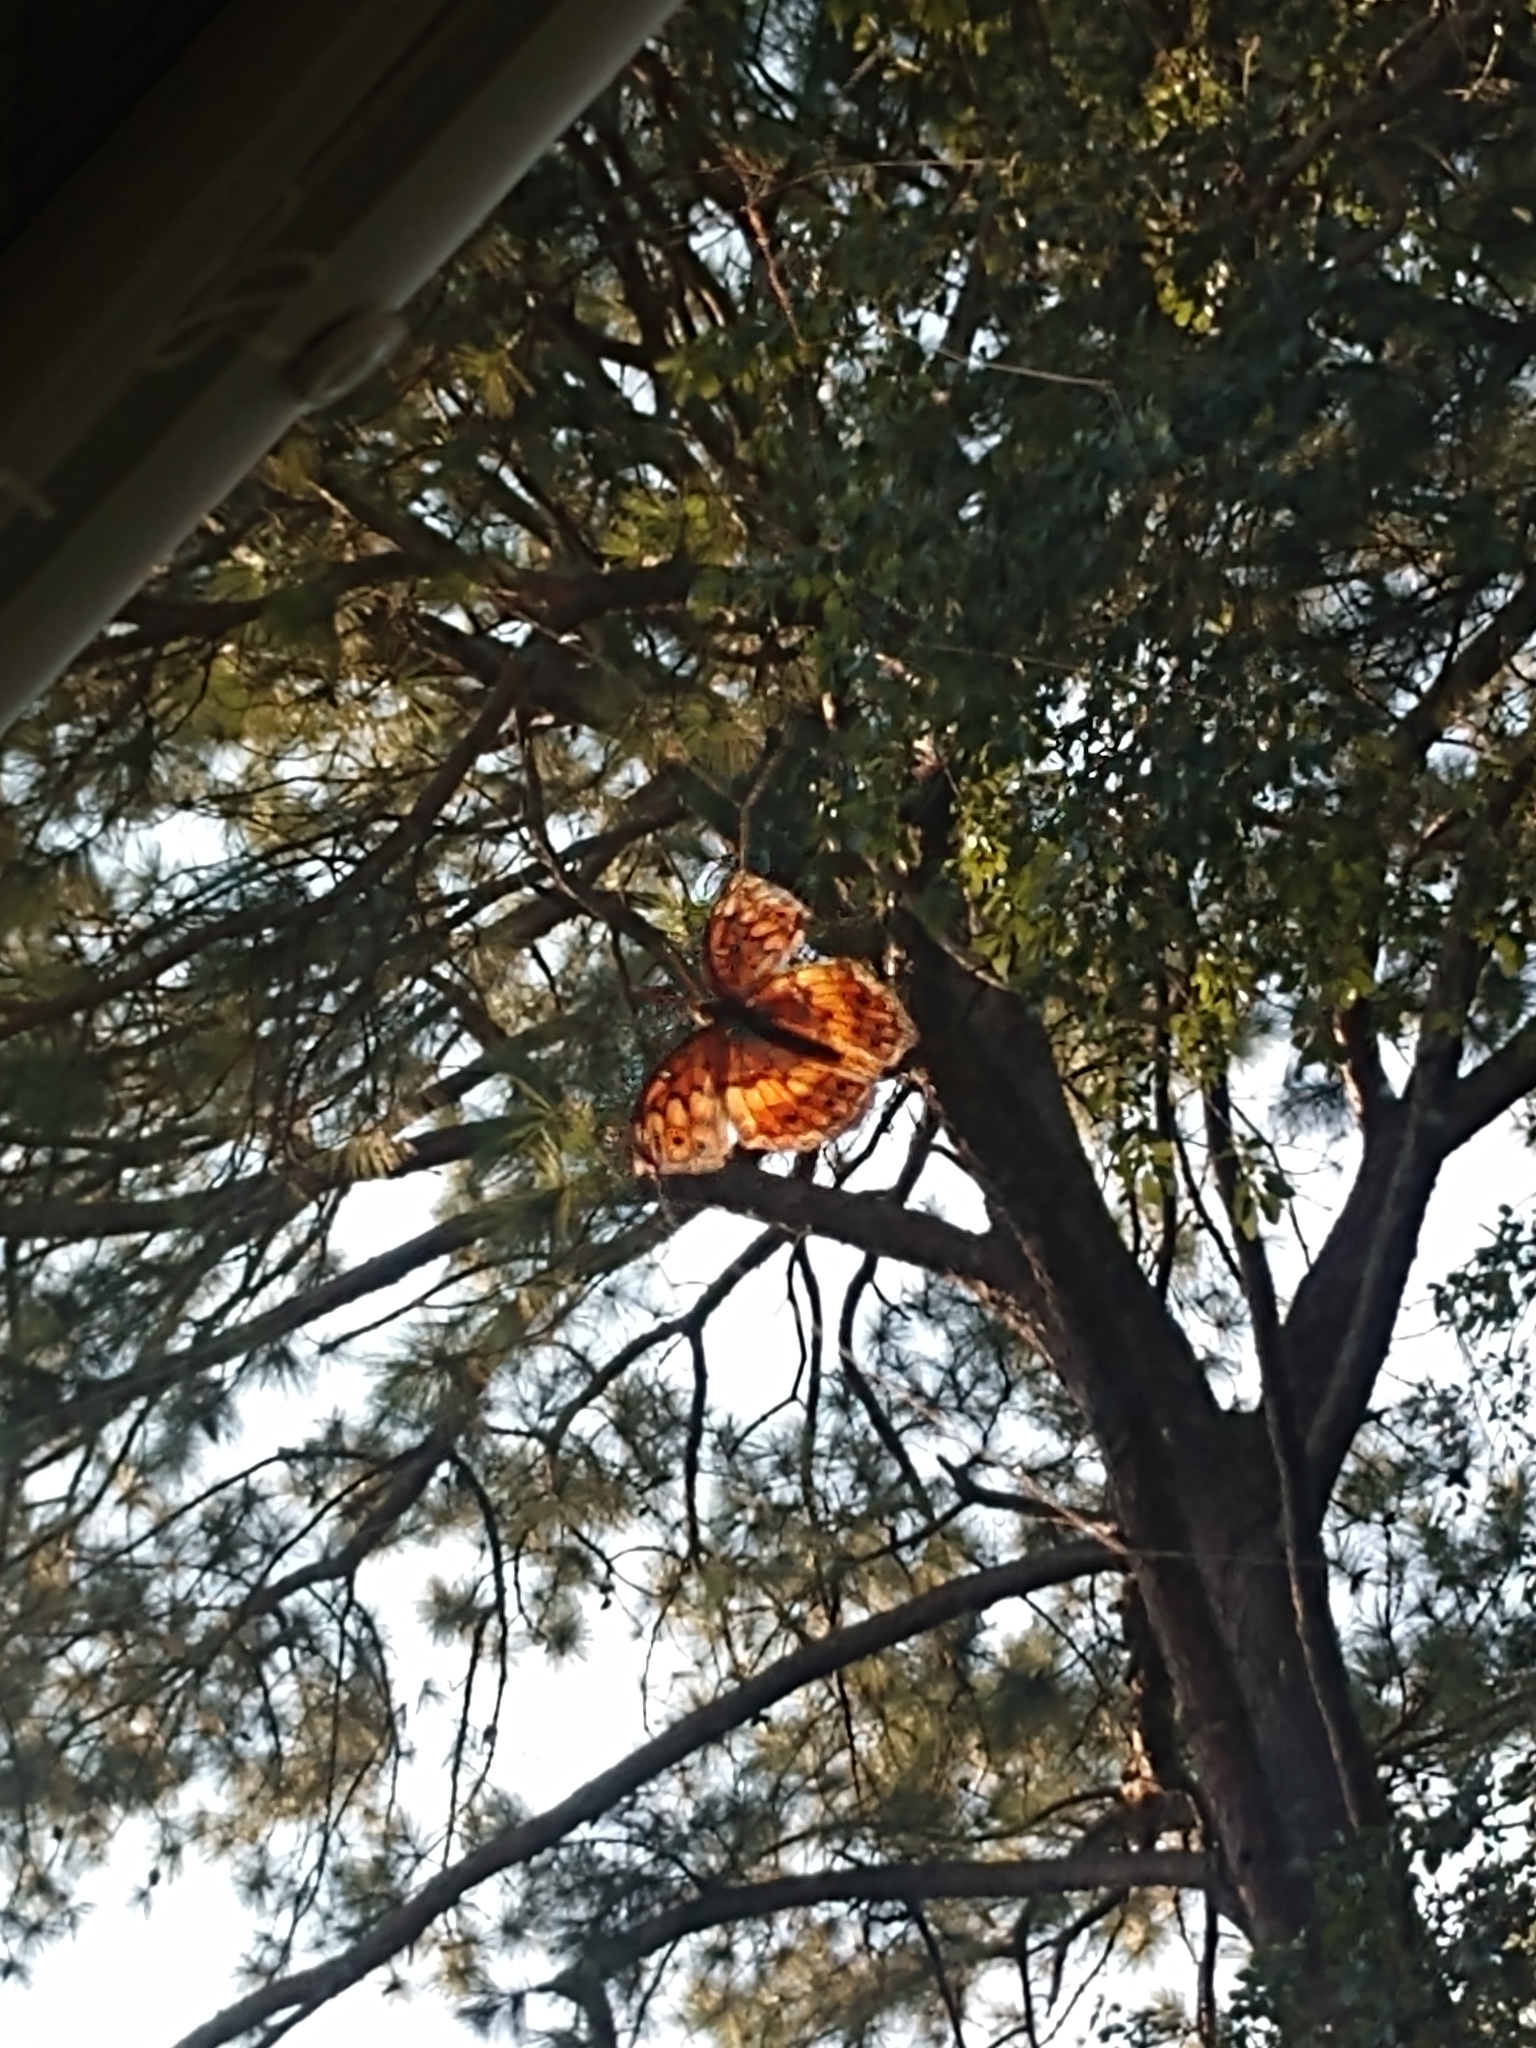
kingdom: Animalia
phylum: Arthropoda
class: Insecta
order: Lepidoptera
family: Nymphalidae
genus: Euptoieta
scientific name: Euptoieta claudia
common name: Variegated fritillary
